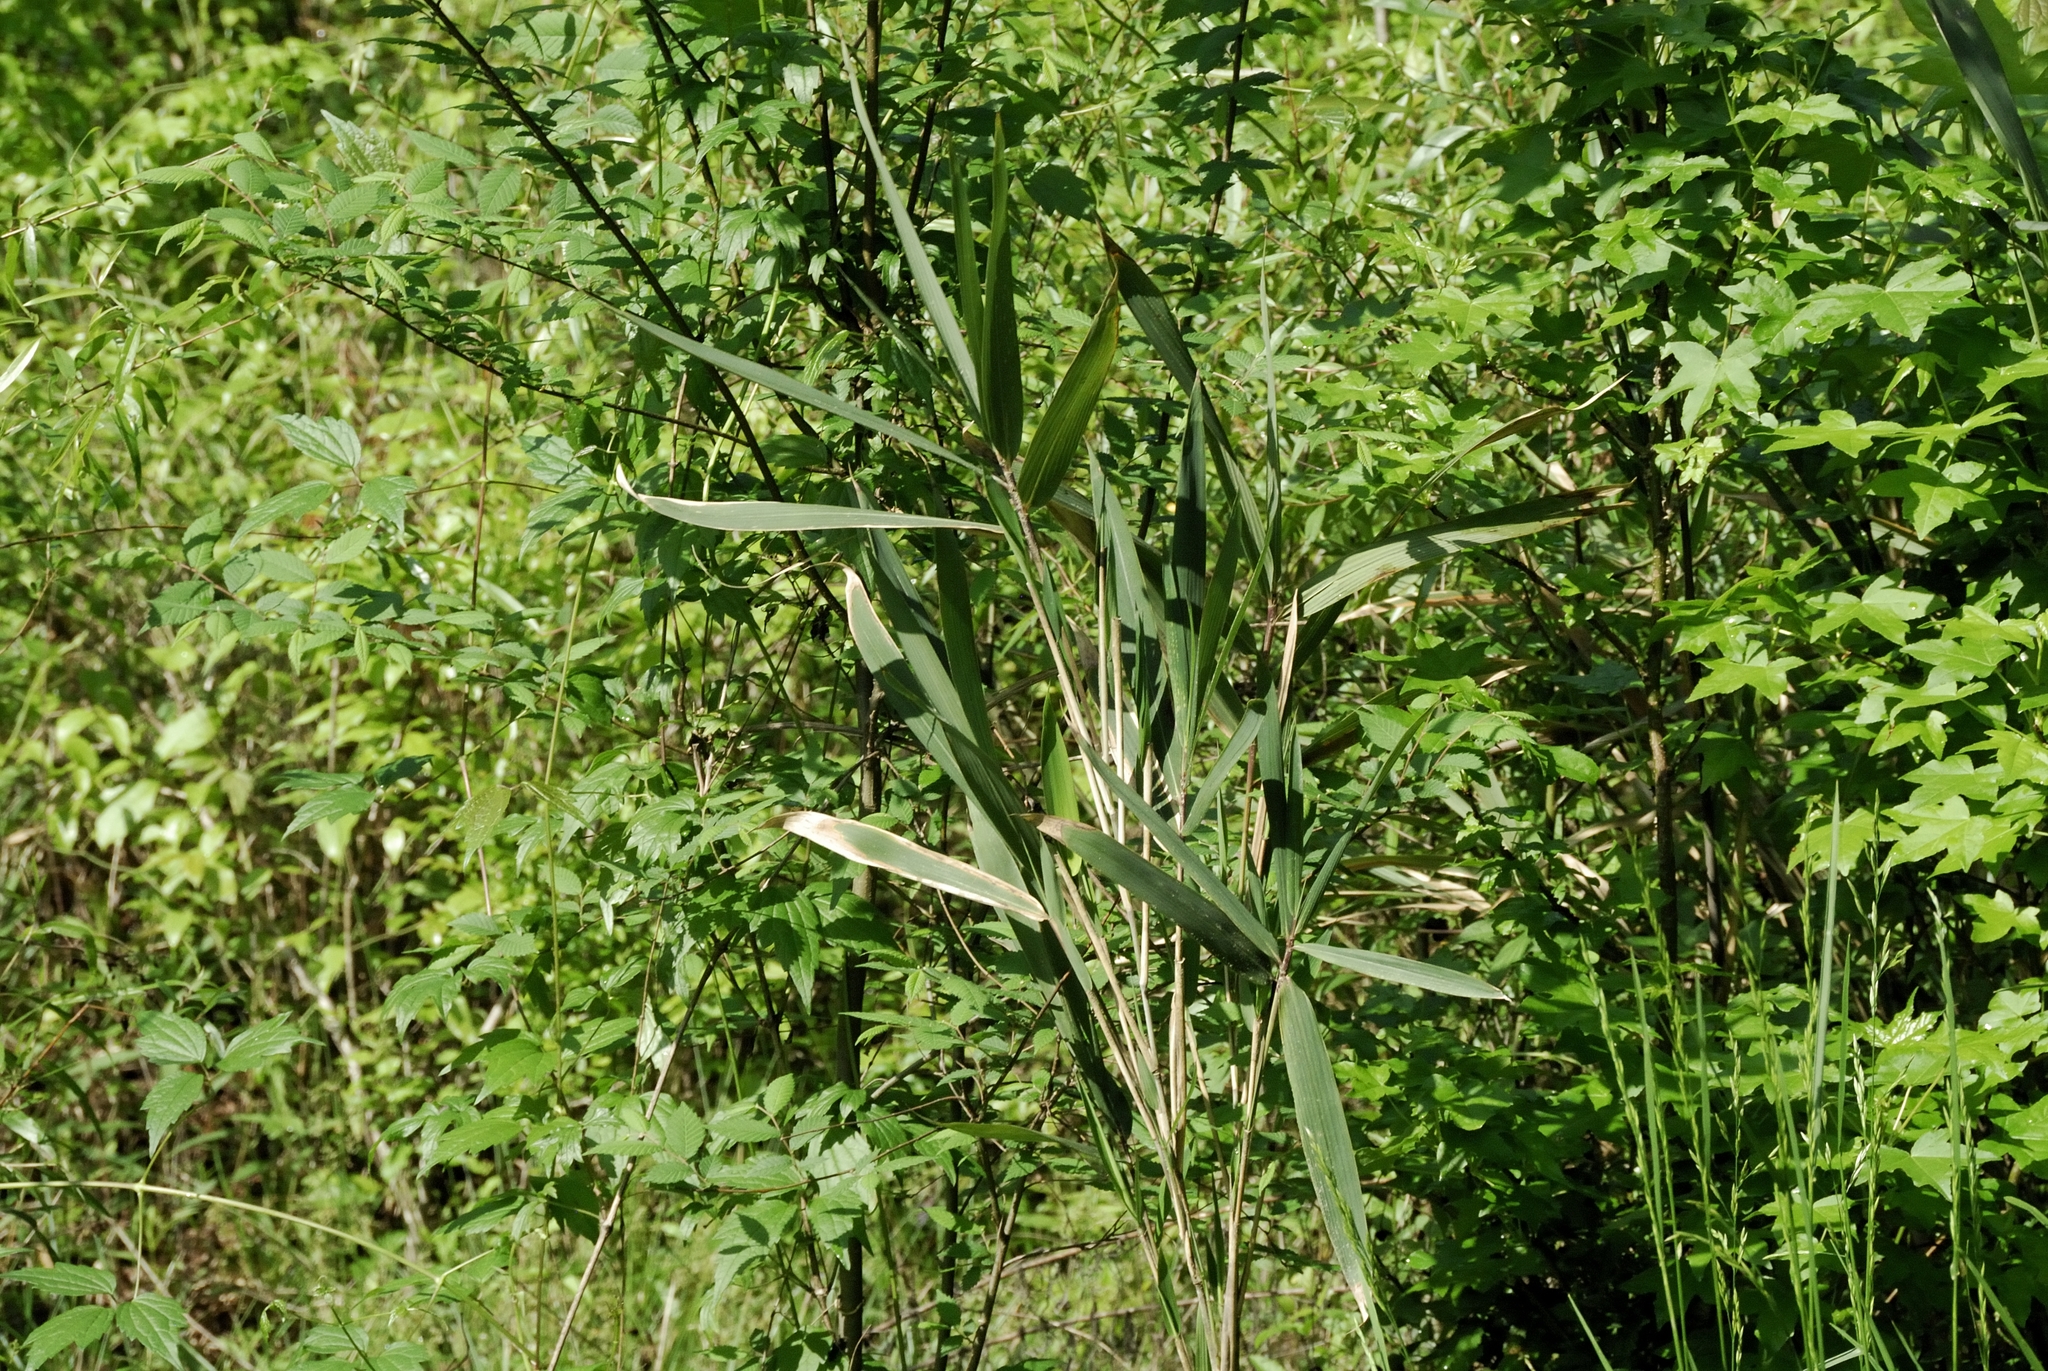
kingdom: Plantae
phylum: Tracheophyta
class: Liliopsida
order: Poales
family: Poaceae
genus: Arundinaria
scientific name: Arundinaria tecta
